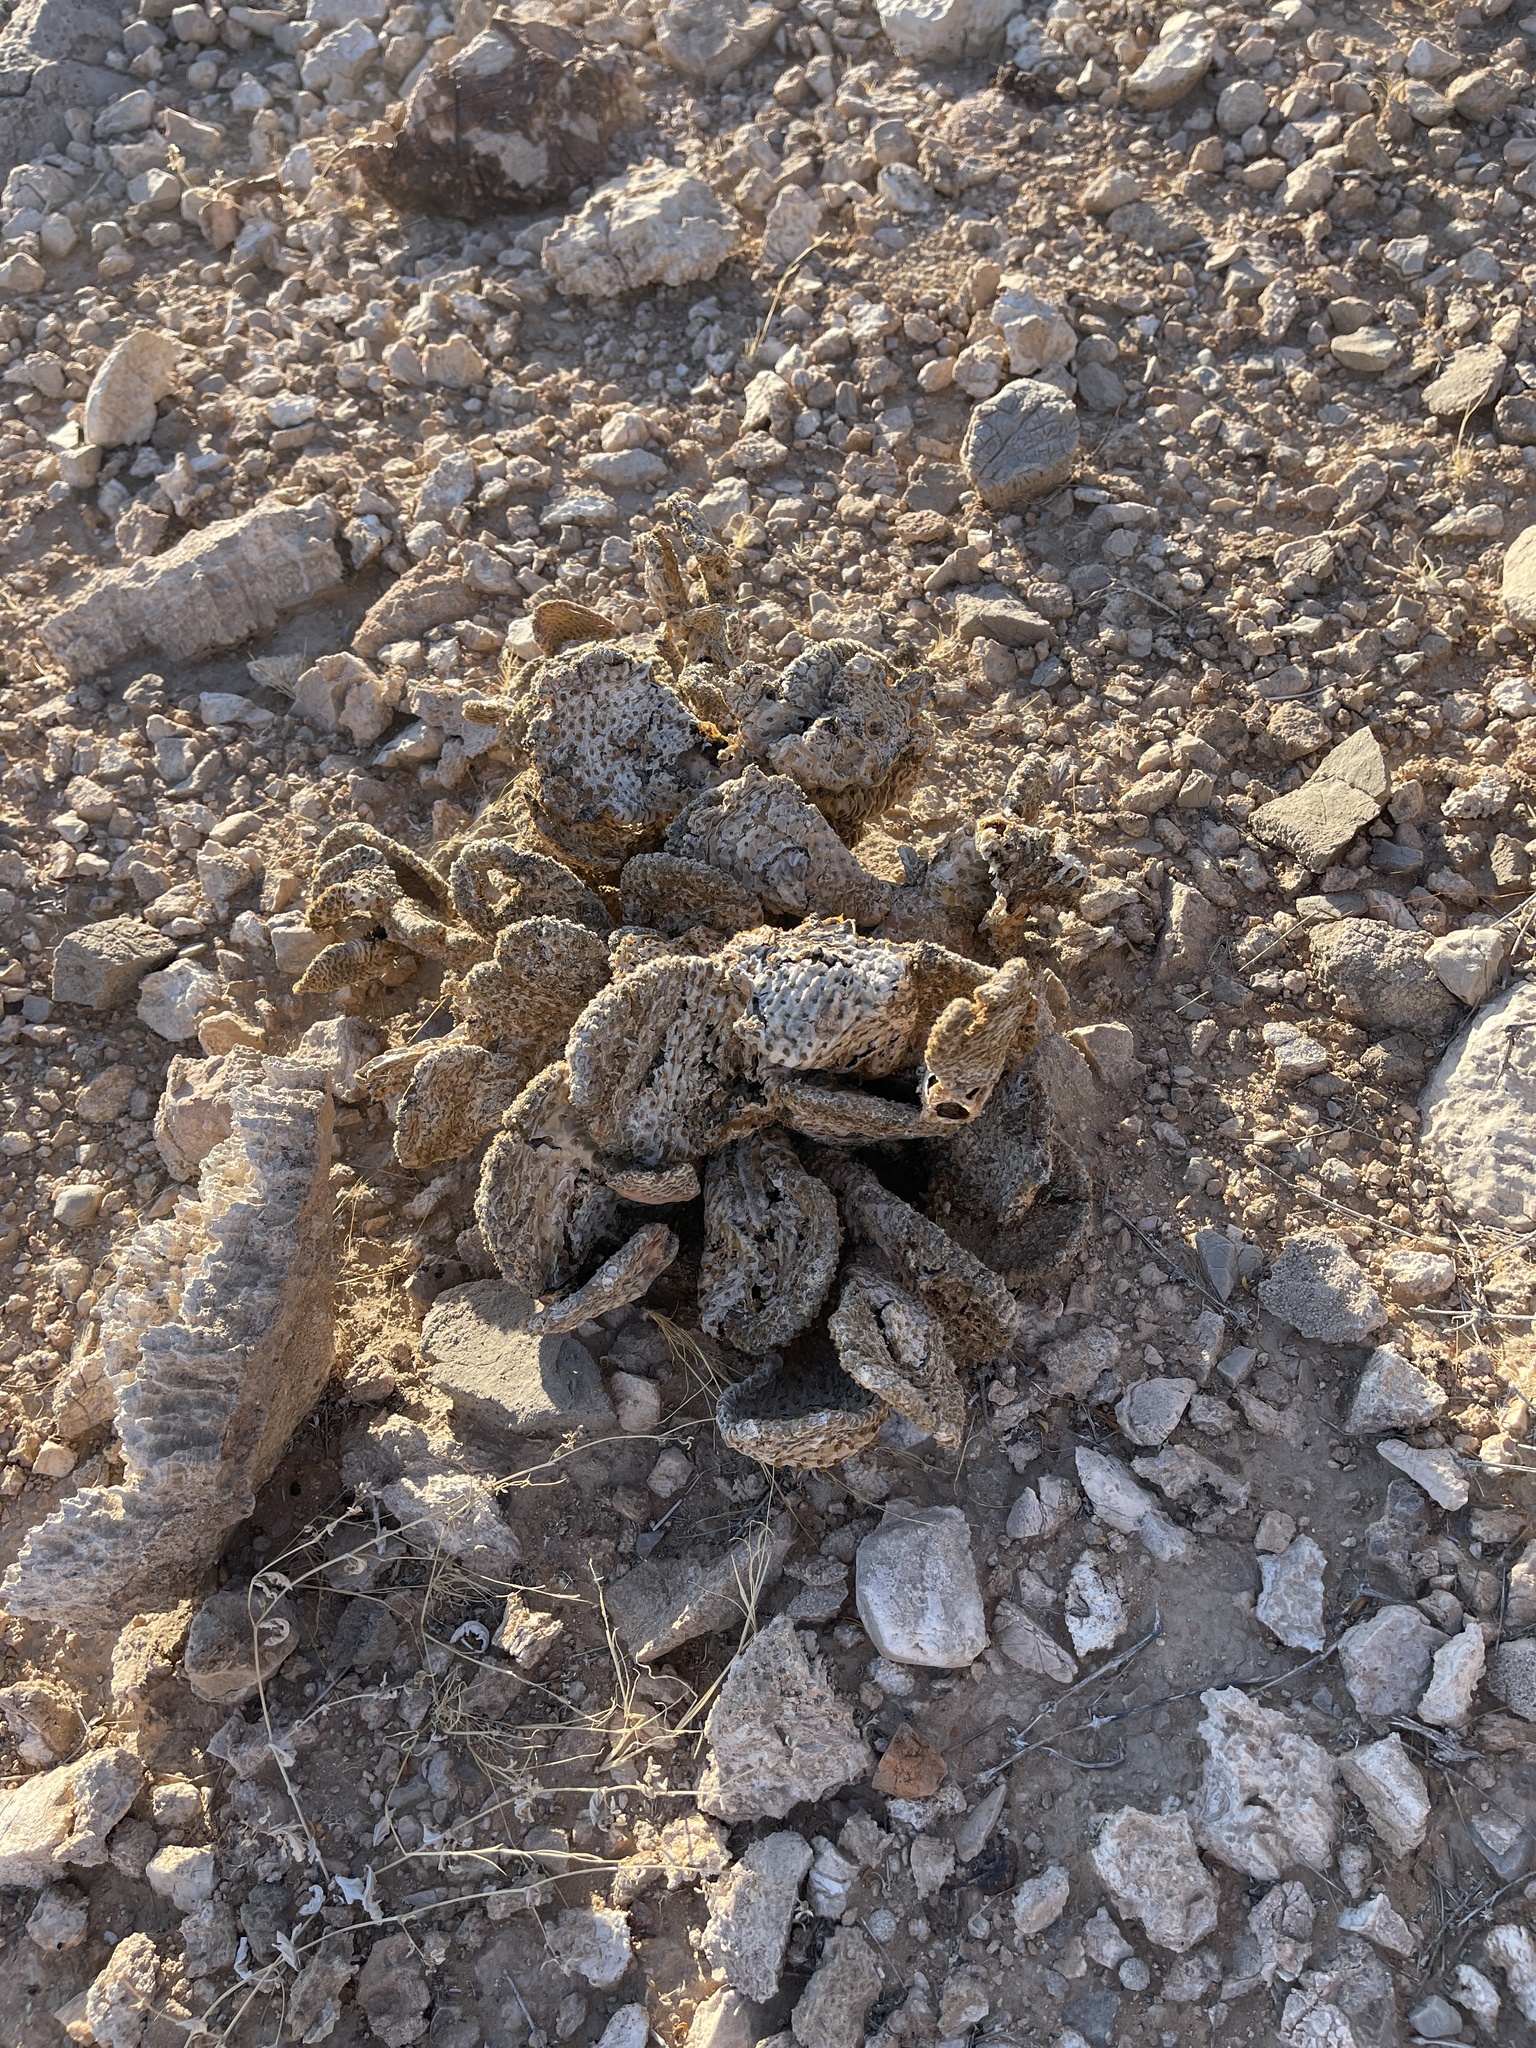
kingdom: Plantae
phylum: Tracheophyta
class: Magnoliopsida
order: Caryophyllales
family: Cactaceae
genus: Opuntia
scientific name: Opuntia basilaris
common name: Beavertail prickly-pear
